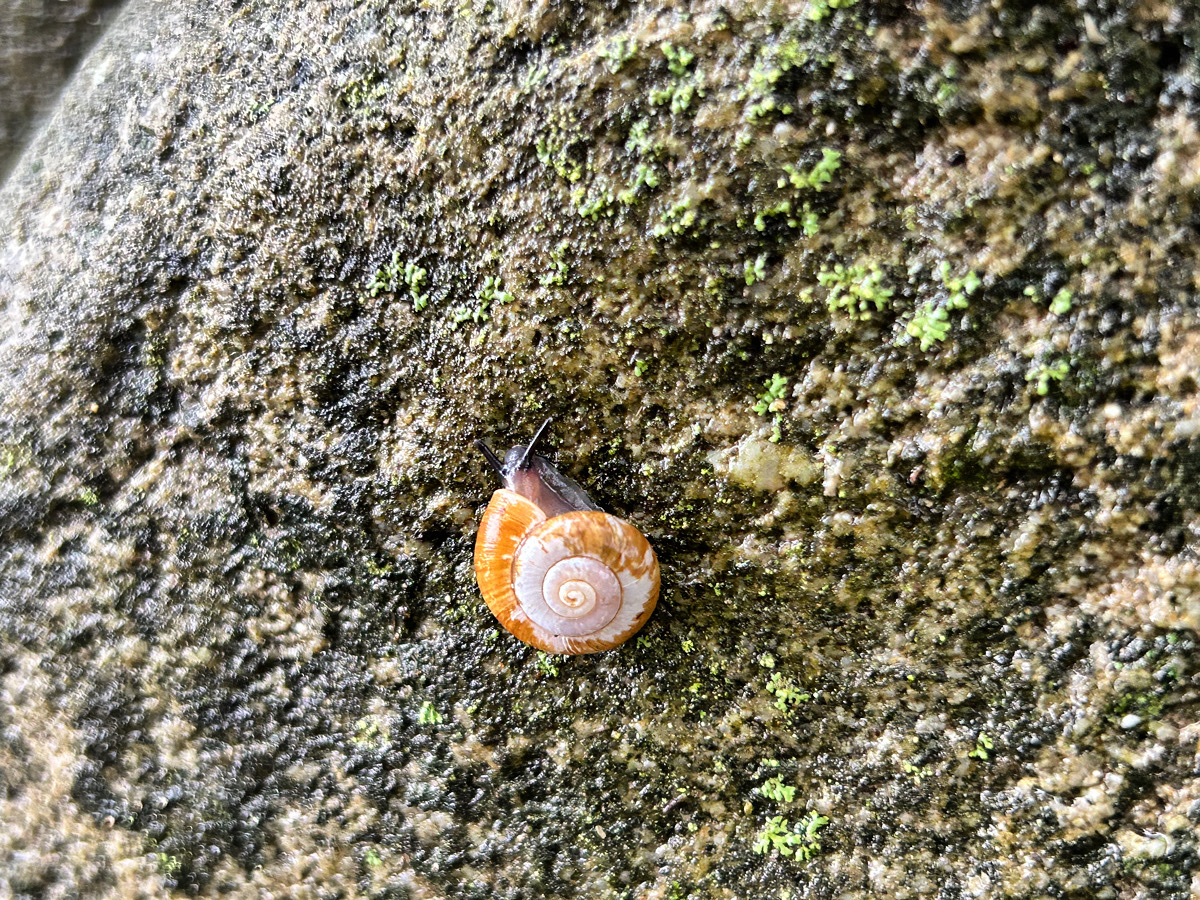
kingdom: Animalia
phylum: Mollusca
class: Gastropoda
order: Architaenioglossa
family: Cyclophoridae
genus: Spirostoma
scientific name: Spirostoma japonicum
